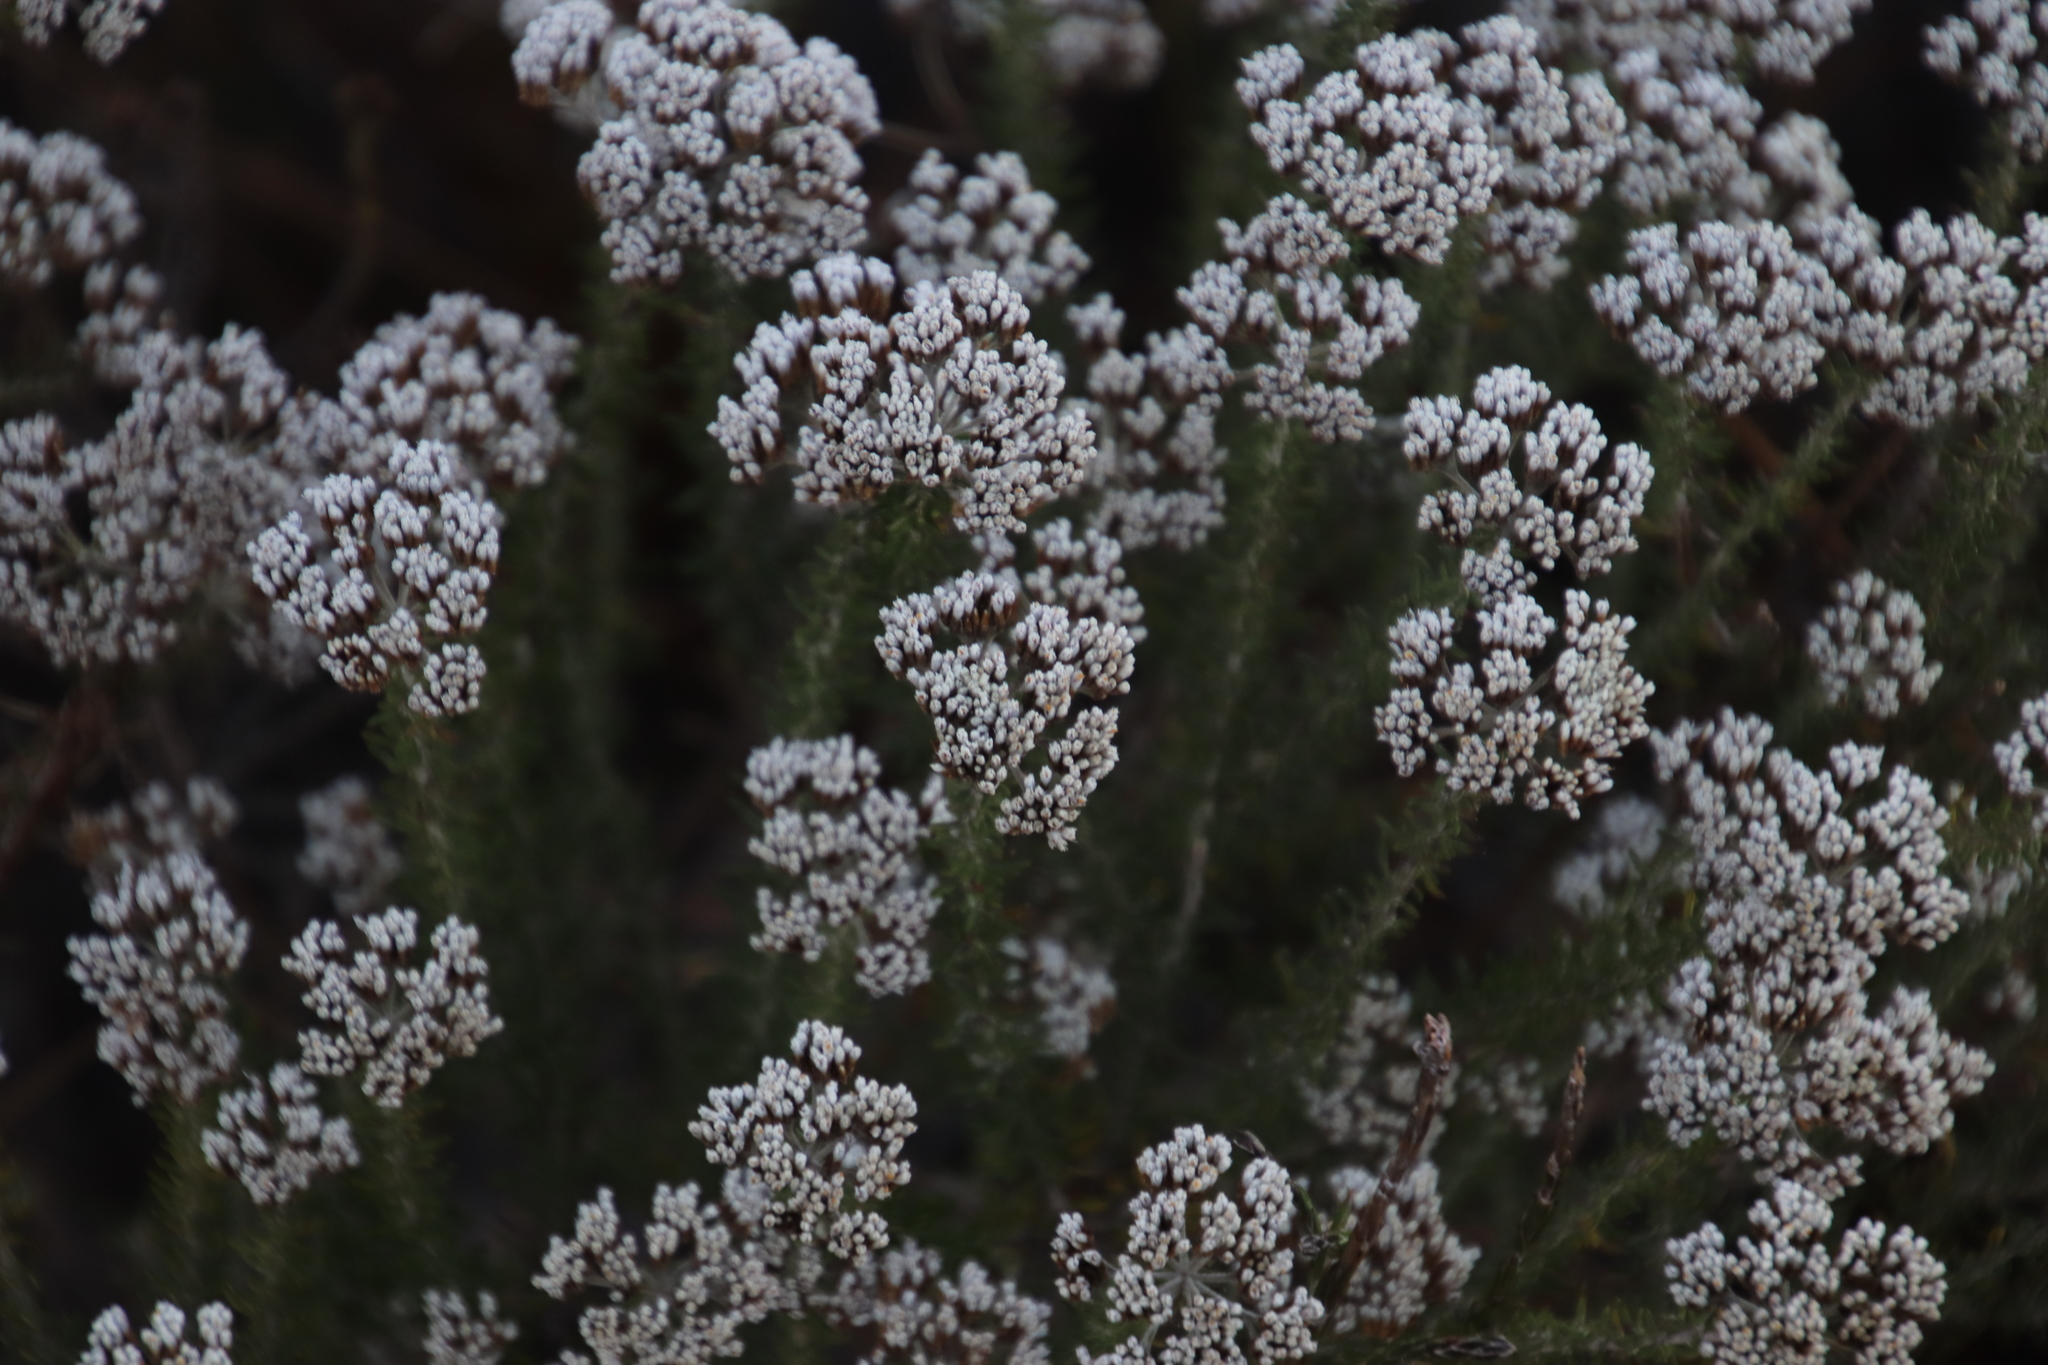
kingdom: Plantae
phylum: Tracheophyta
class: Magnoliopsida
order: Asterales
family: Asteraceae
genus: Metalasia
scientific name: Metalasia densa
